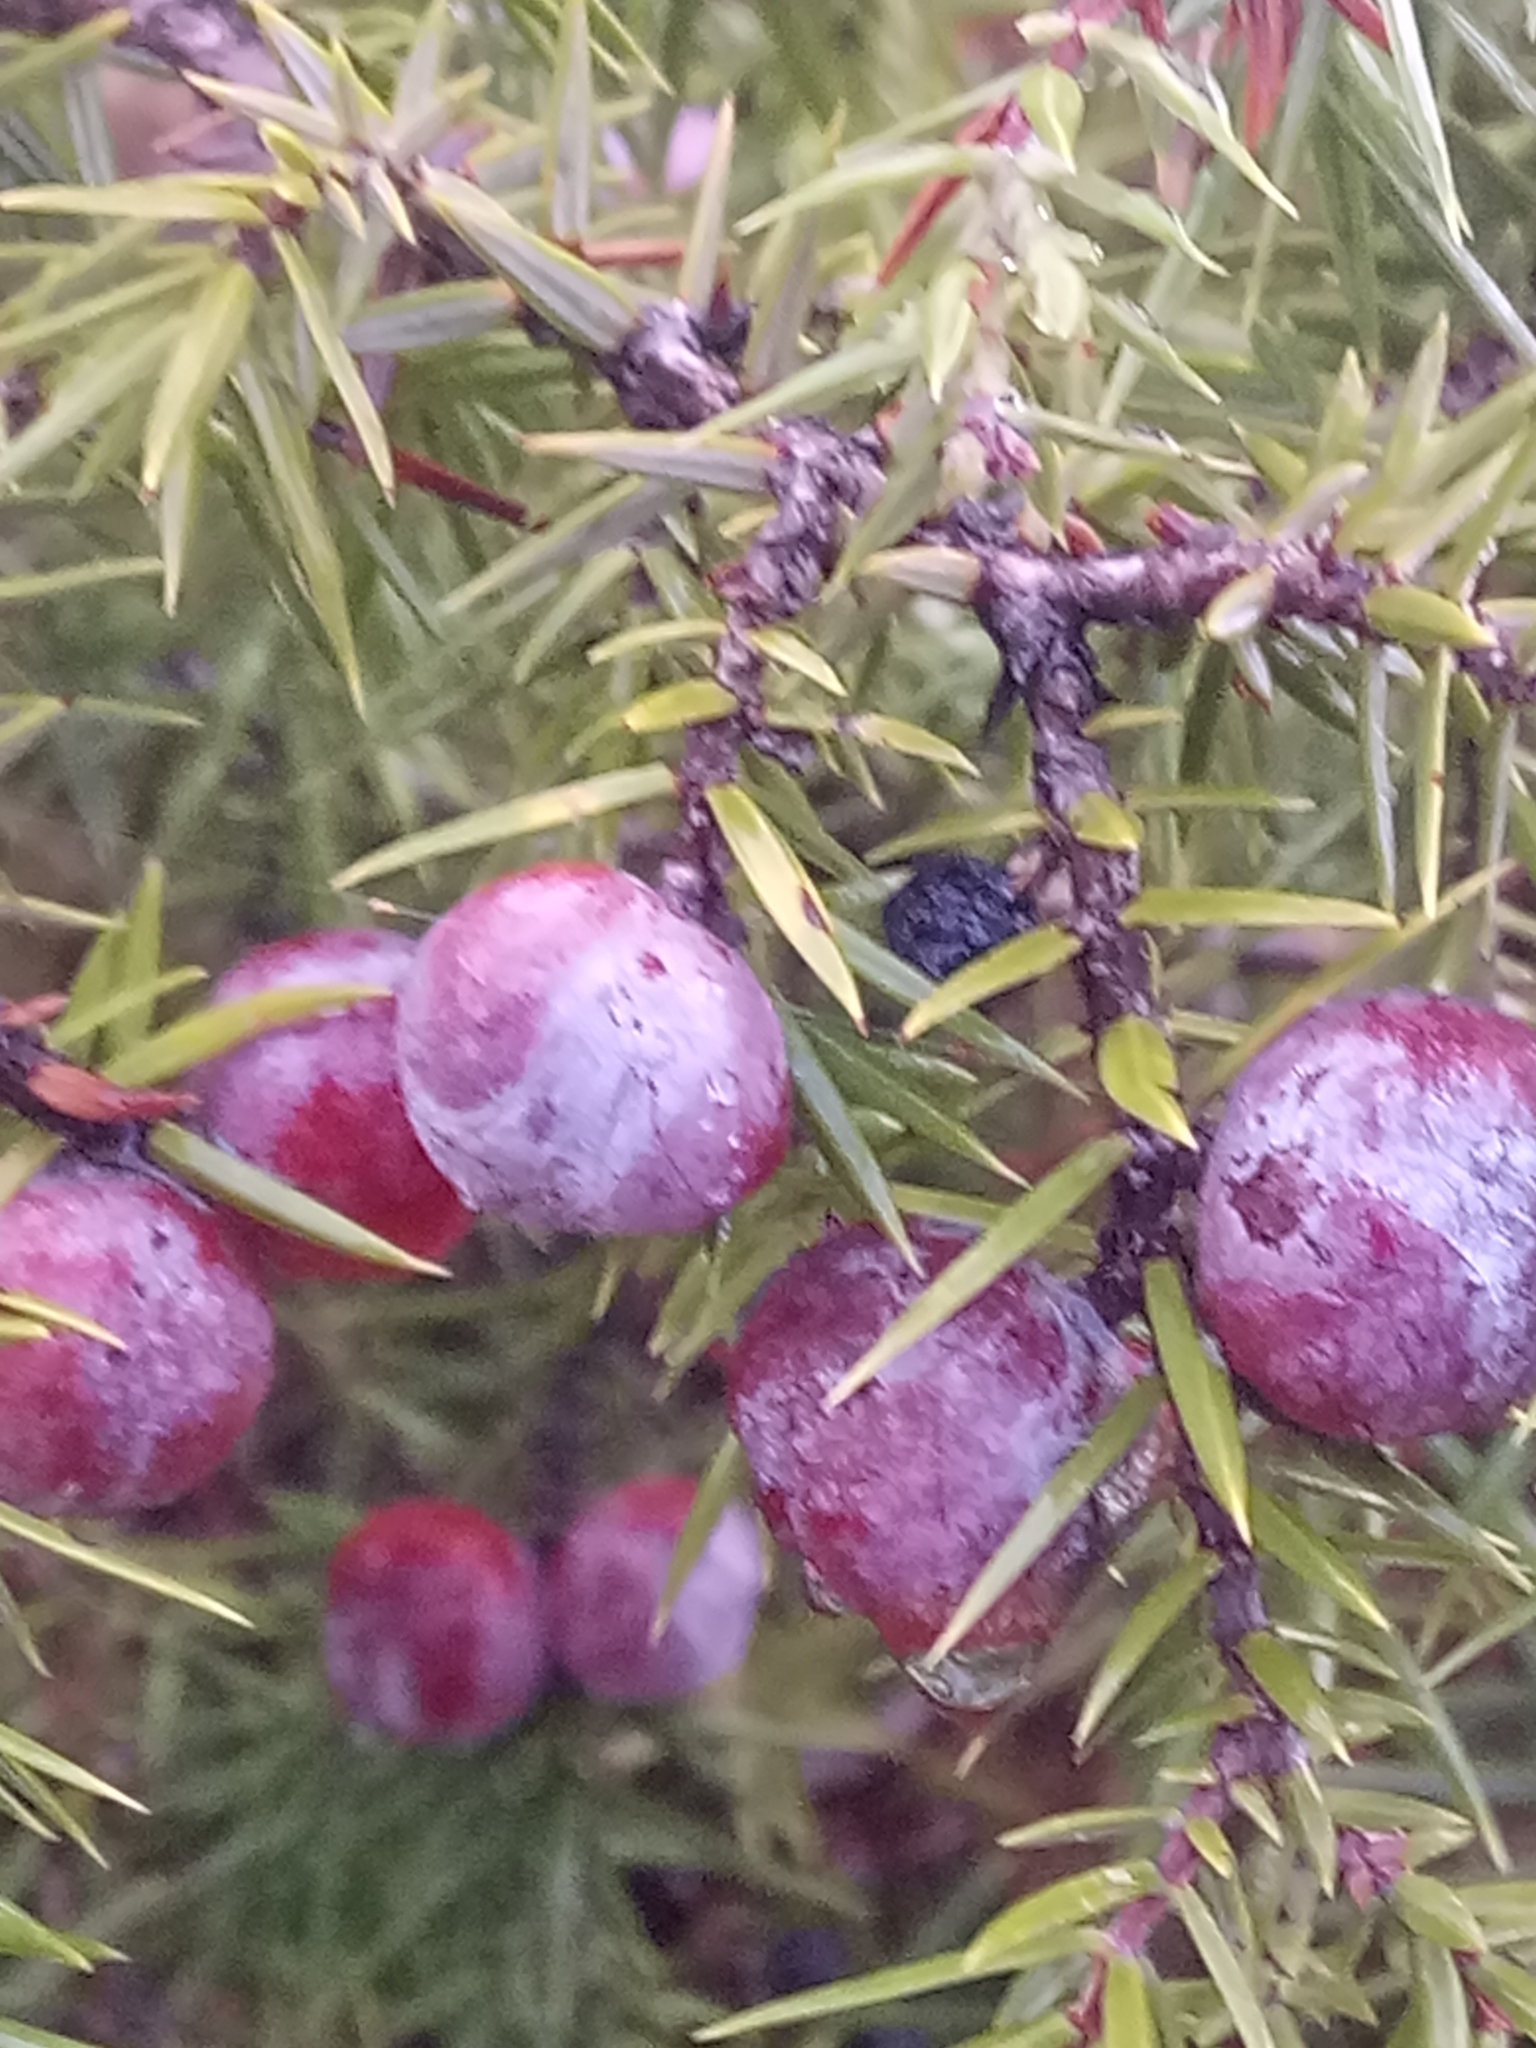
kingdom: Plantae
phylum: Tracheophyta
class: Pinopsida
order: Pinales
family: Cupressaceae
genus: Juniperus
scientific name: Juniperus oxycedrus
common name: Prickly juniper
